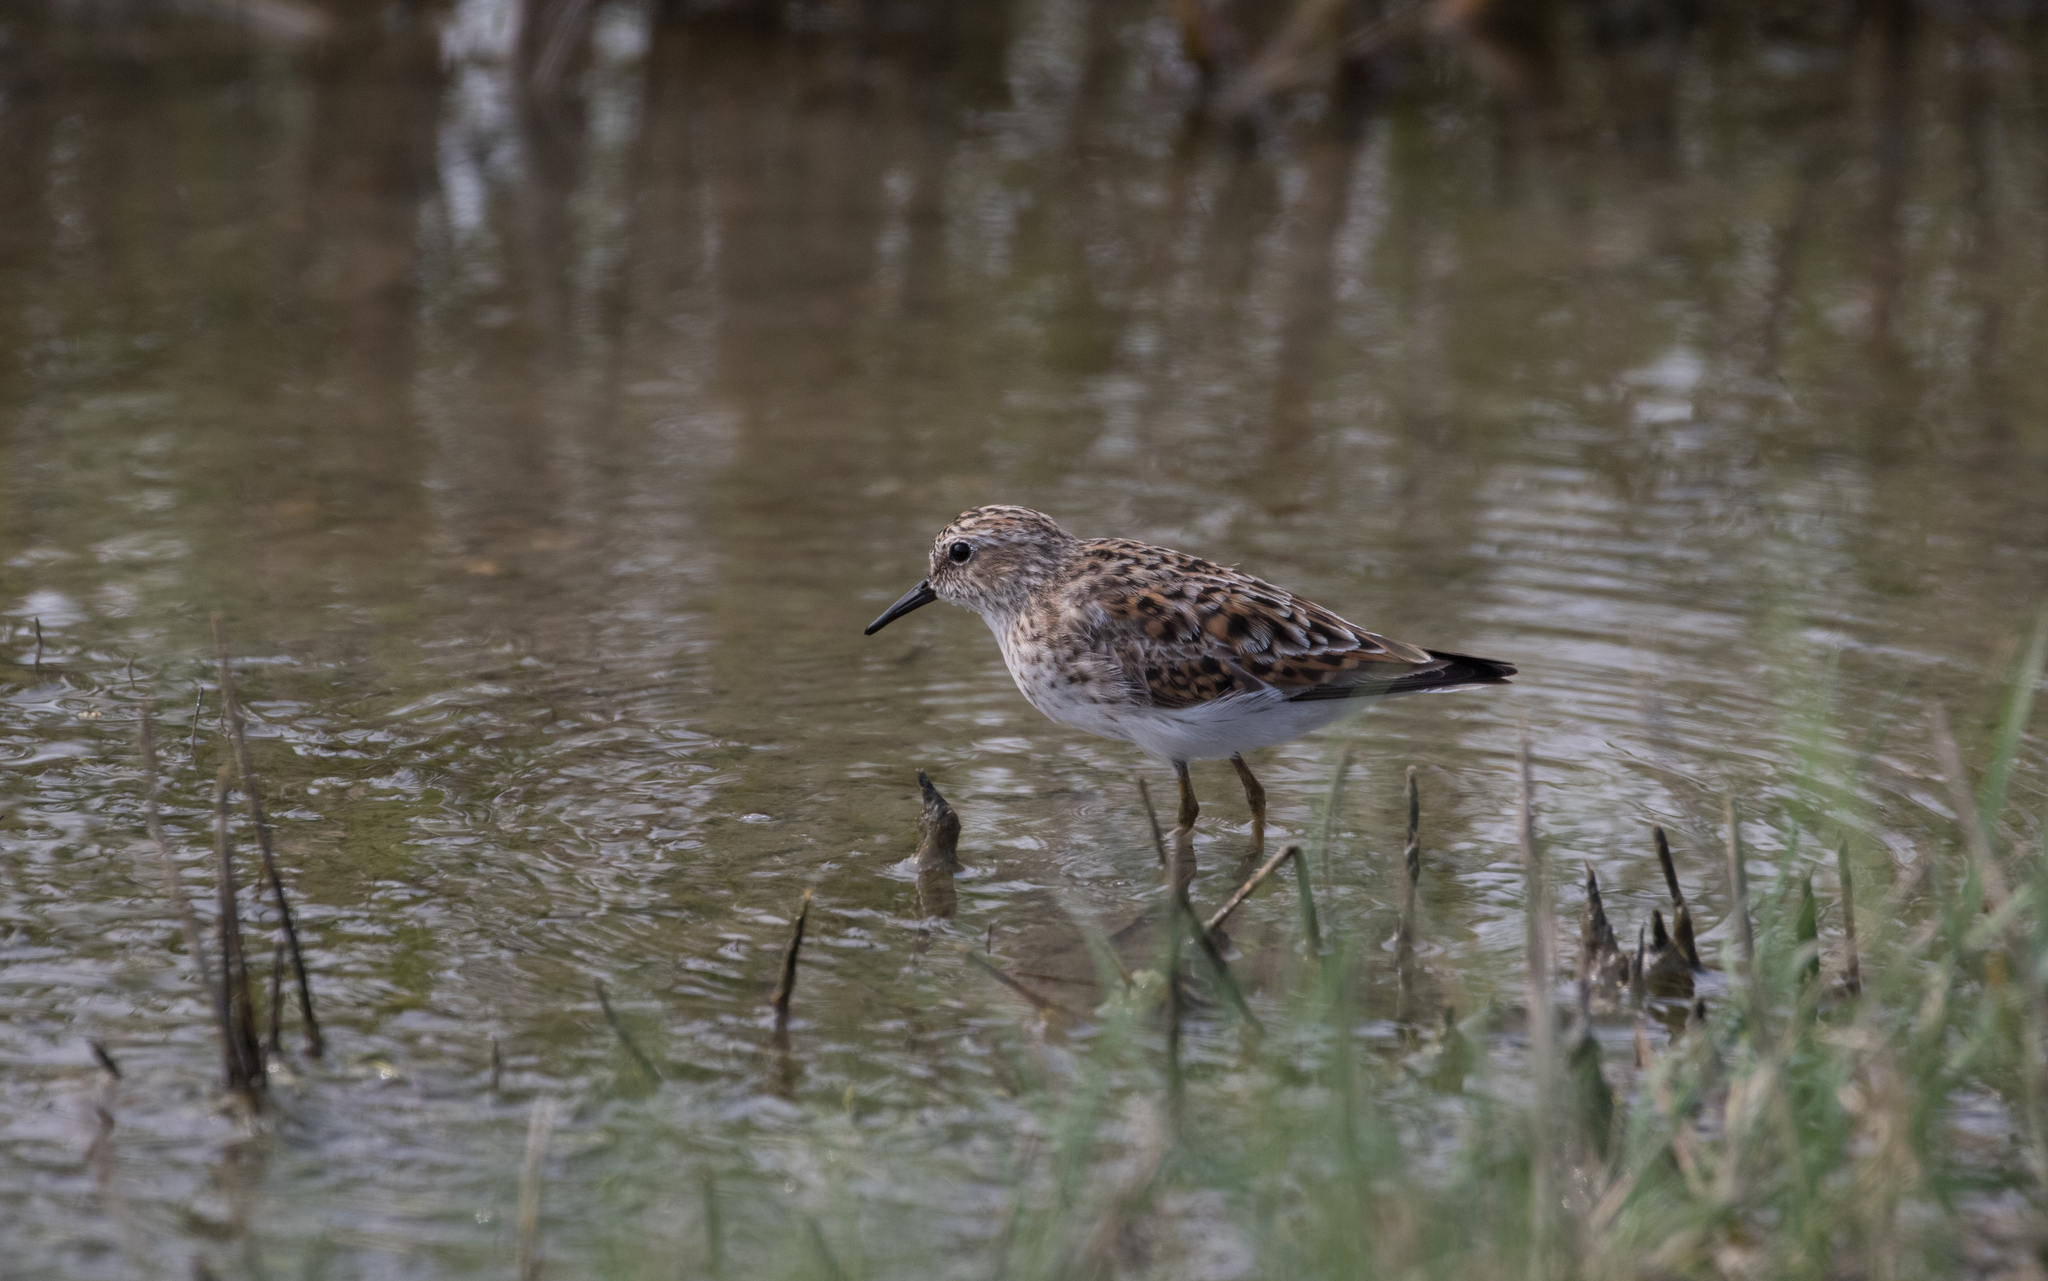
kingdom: Animalia
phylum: Chordata
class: Aves
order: Charadriiformes
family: Scolopacidae
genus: Calidris
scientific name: Calidris minutilla
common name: Least sandpiper
